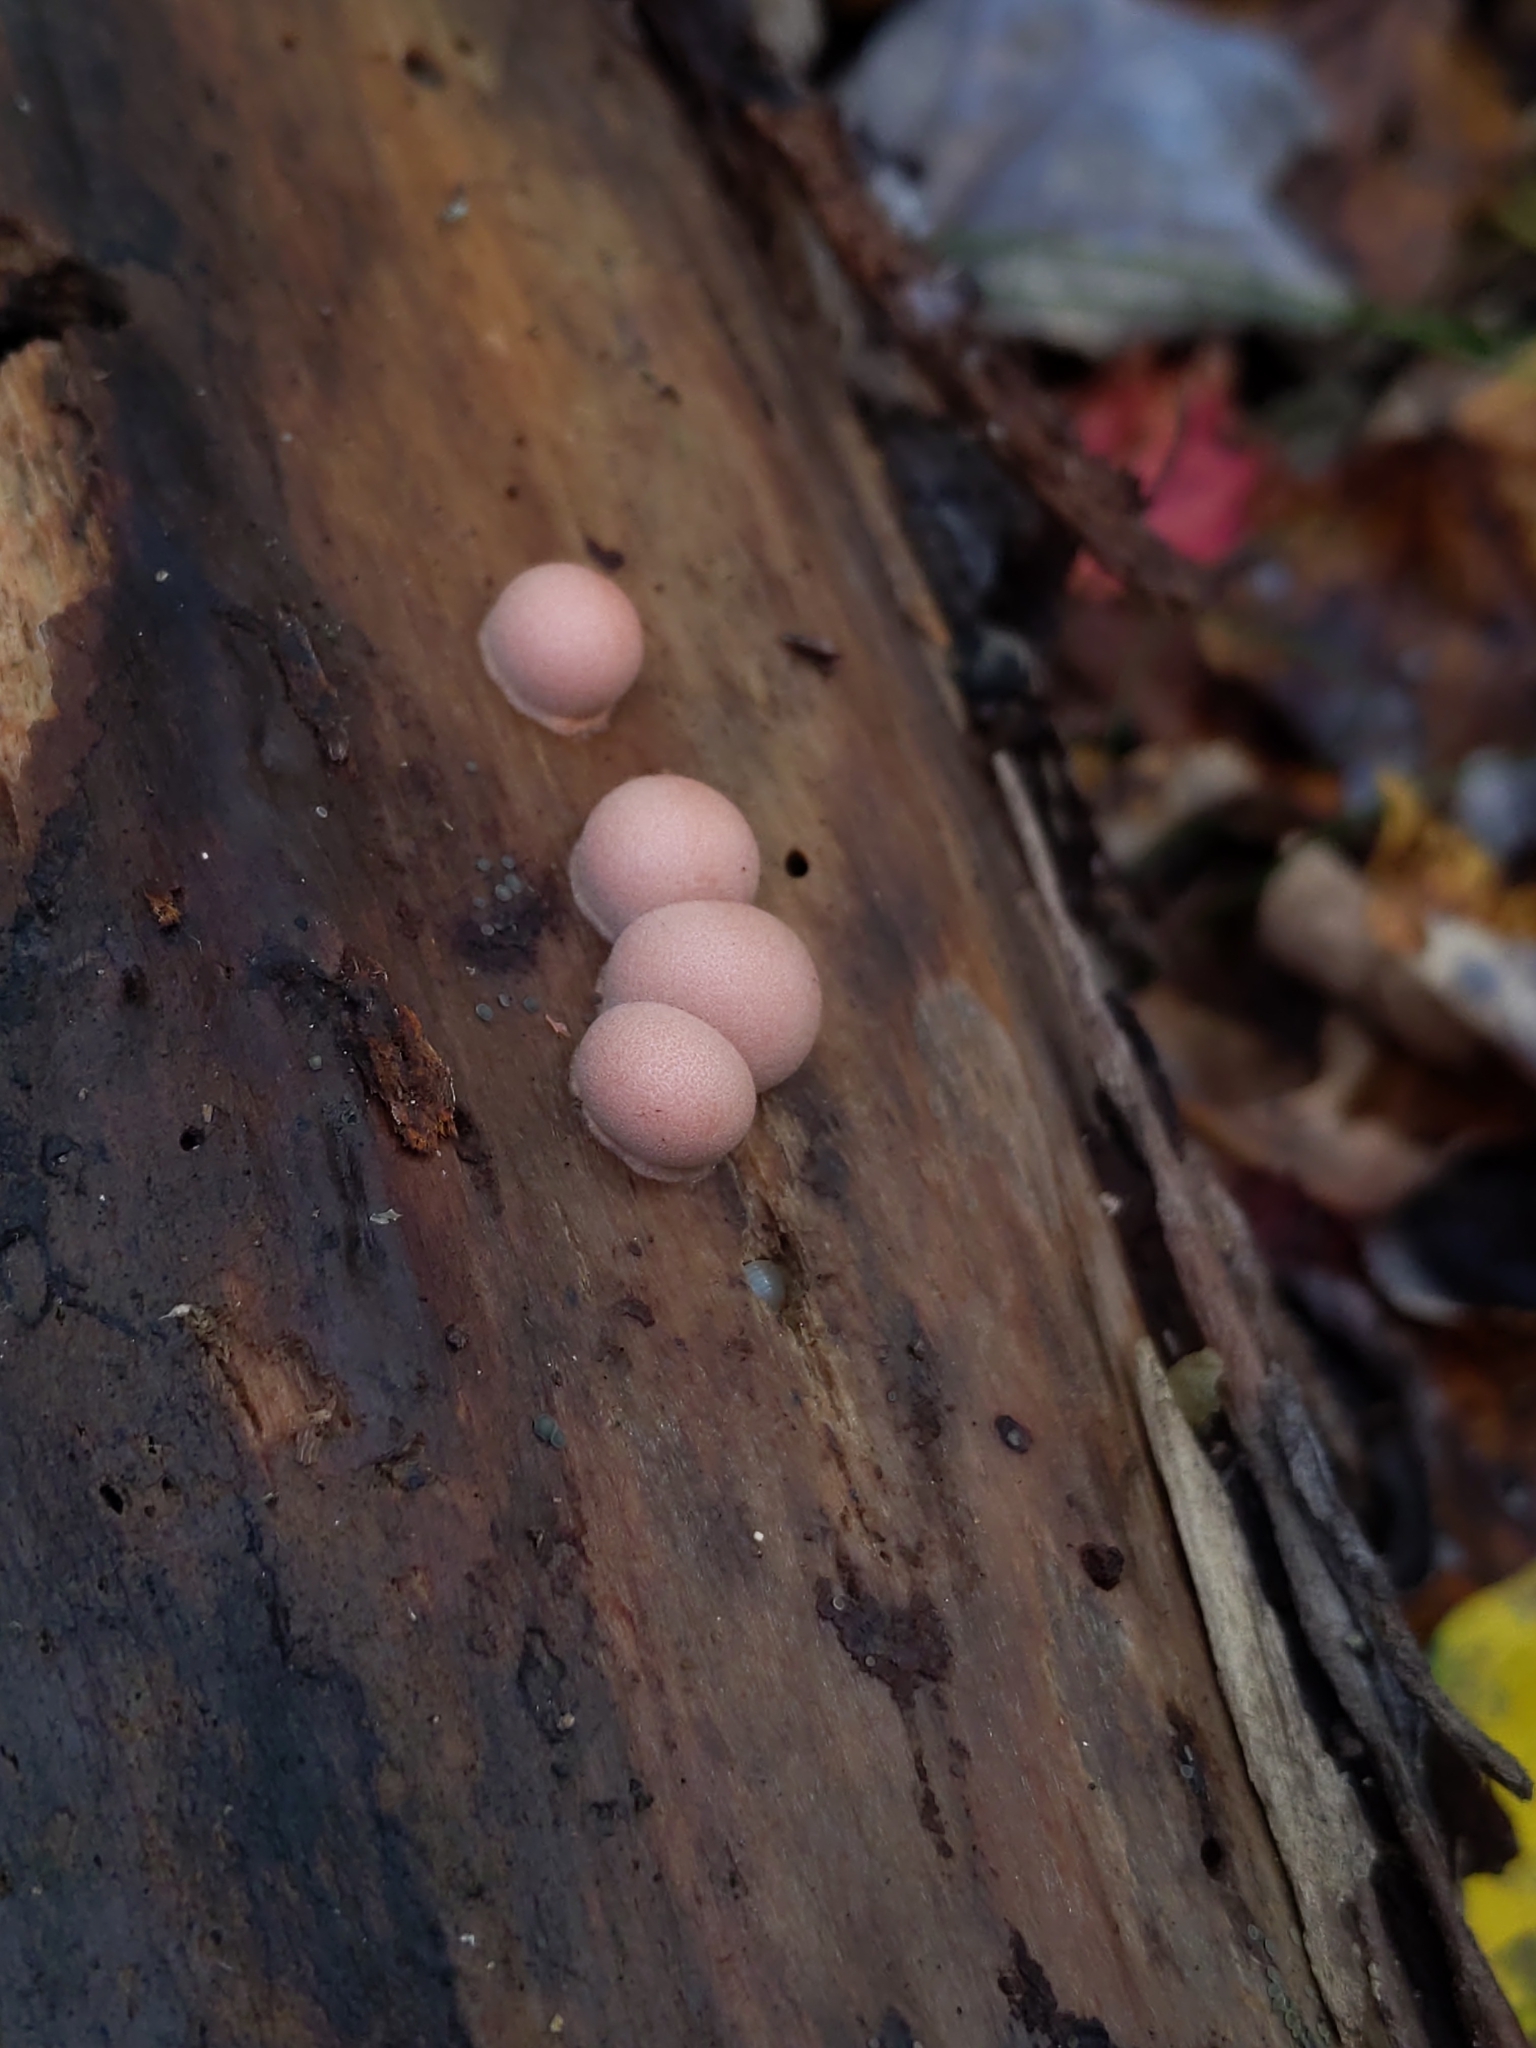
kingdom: Protozoa
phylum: Mycetozoa
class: Myxomycetes
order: Cribrariales
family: Tubiferaceae
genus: Lycogala
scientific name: Lycogala epidendrum
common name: Wolf's milk
